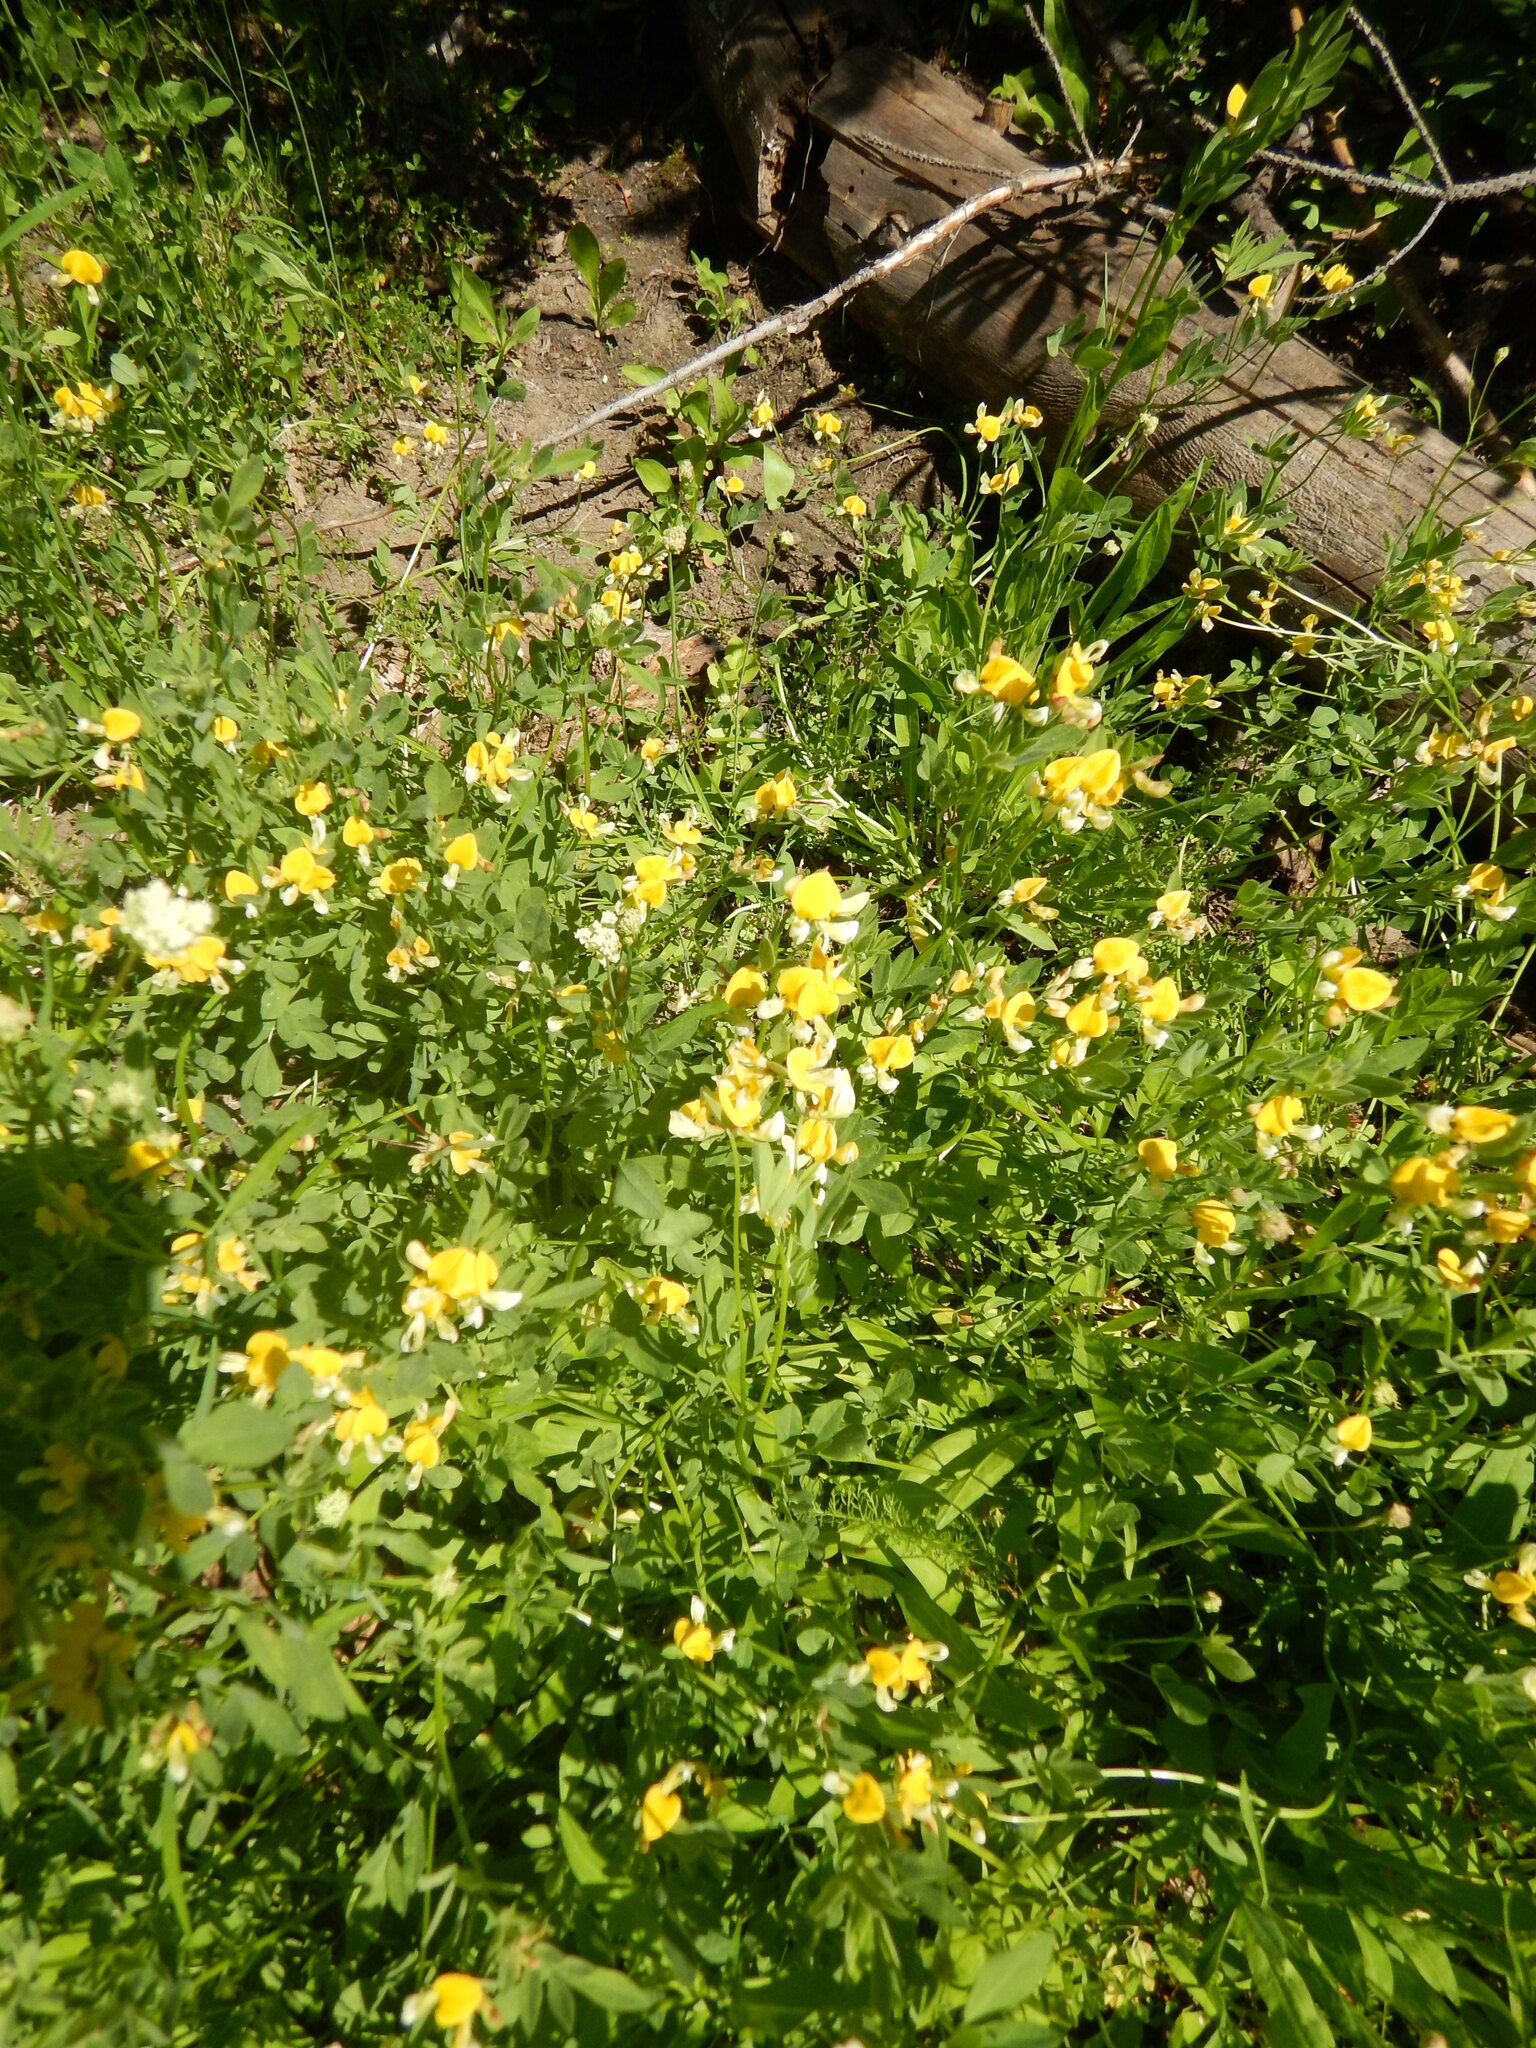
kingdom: Plantae
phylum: Tracheophyta
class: Magnoliopsida
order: Fabales
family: Fabaceae
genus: Hosackia
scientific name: Hosackia oblongifolia
